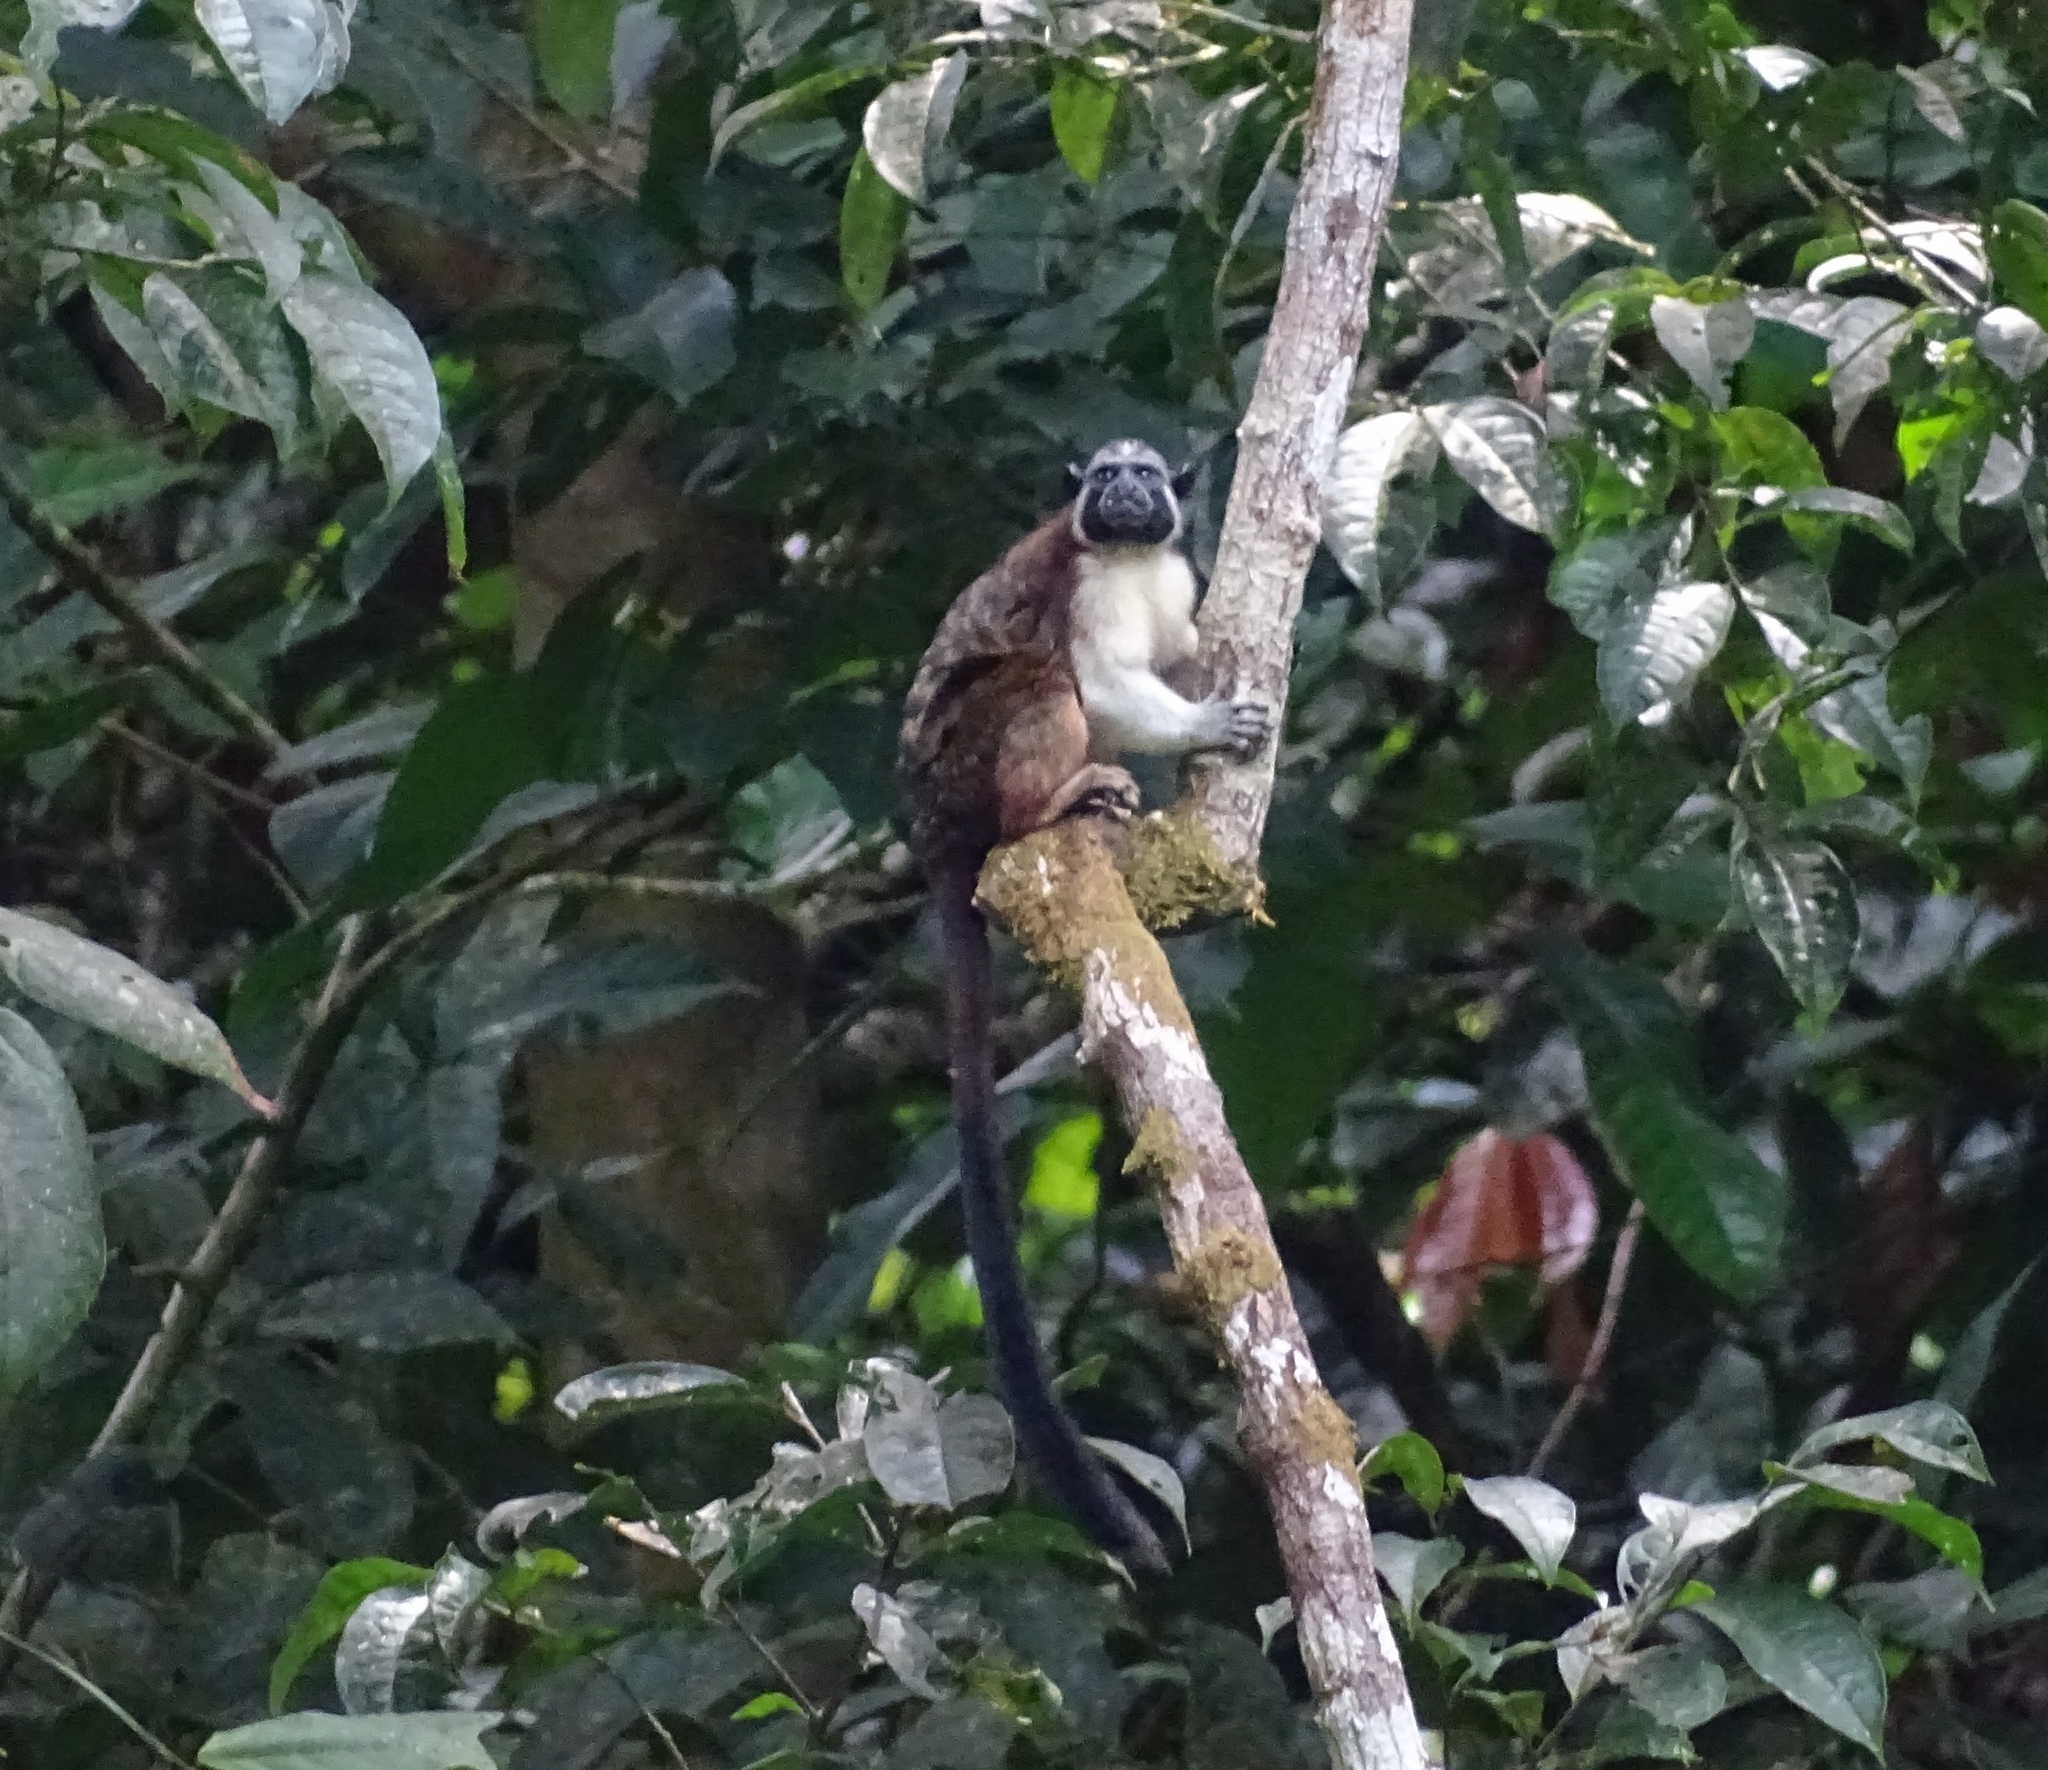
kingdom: Animalia
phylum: Chordata
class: Mammalia
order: Primates
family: Callitrichidae
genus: Saguinus
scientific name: Saguinus geoffroyi
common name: Geoffroy s tamarin
